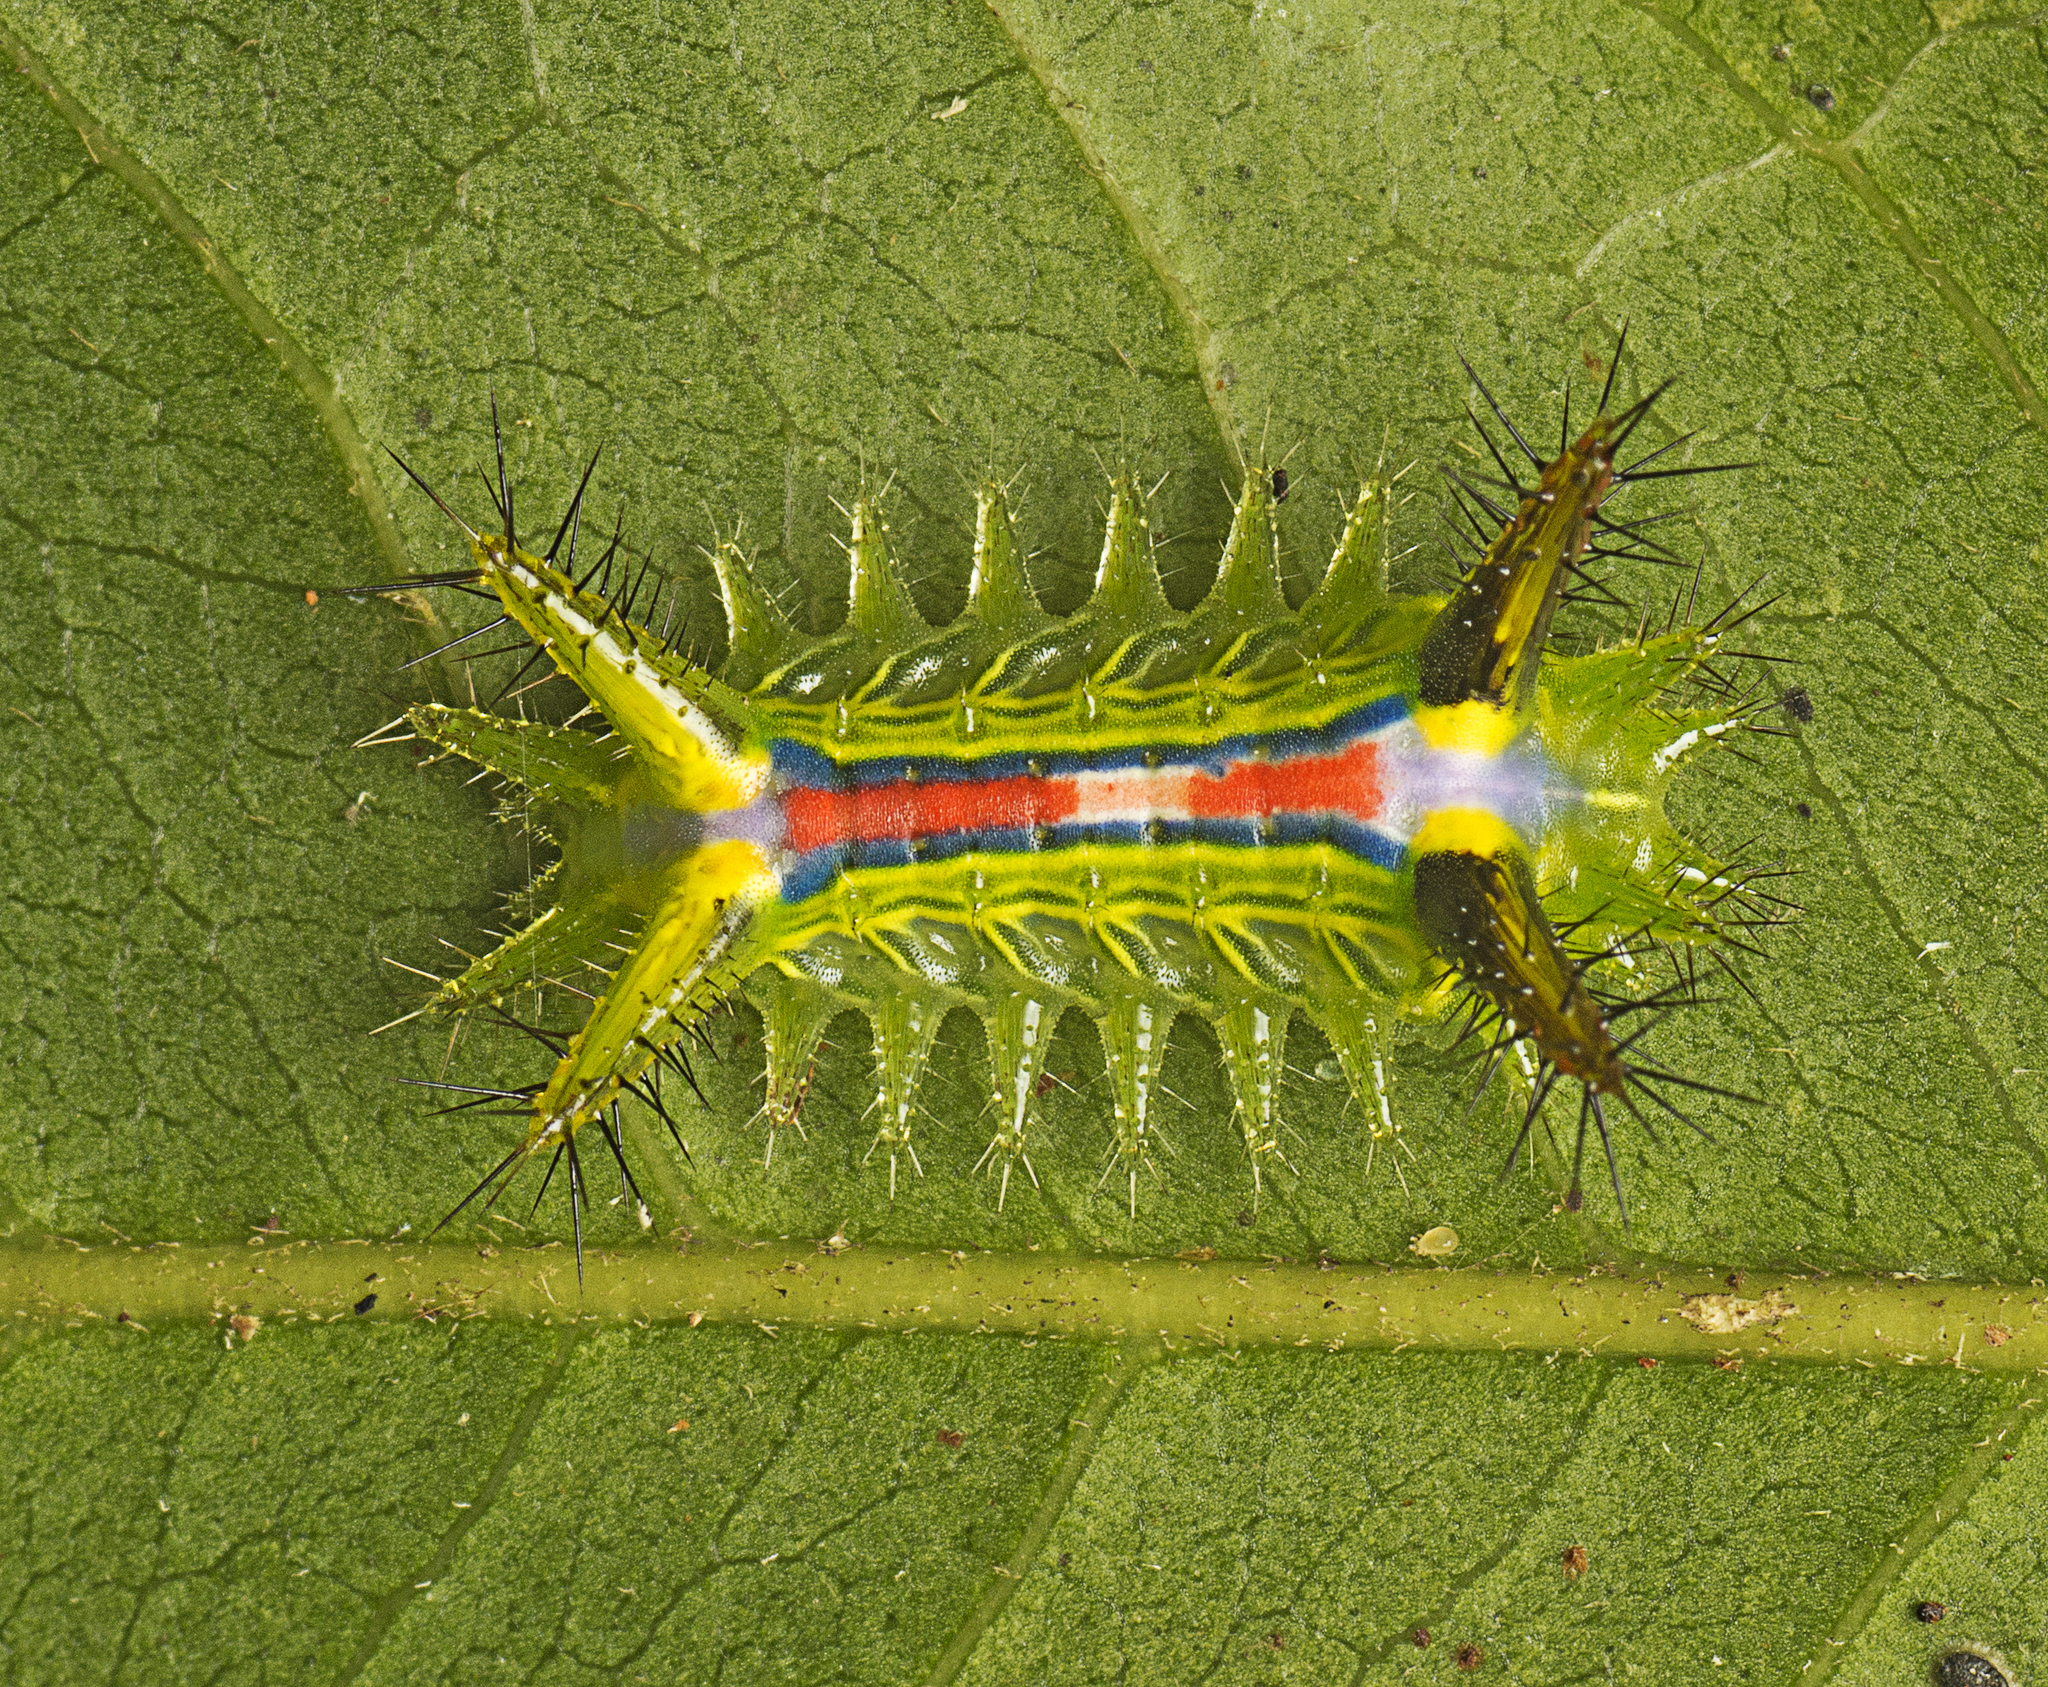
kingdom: Animalia
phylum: Arthropoda
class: Insecta
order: Lepidoptera
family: Limacodidae
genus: Anaxidia
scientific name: Anaxidia lozogramma
